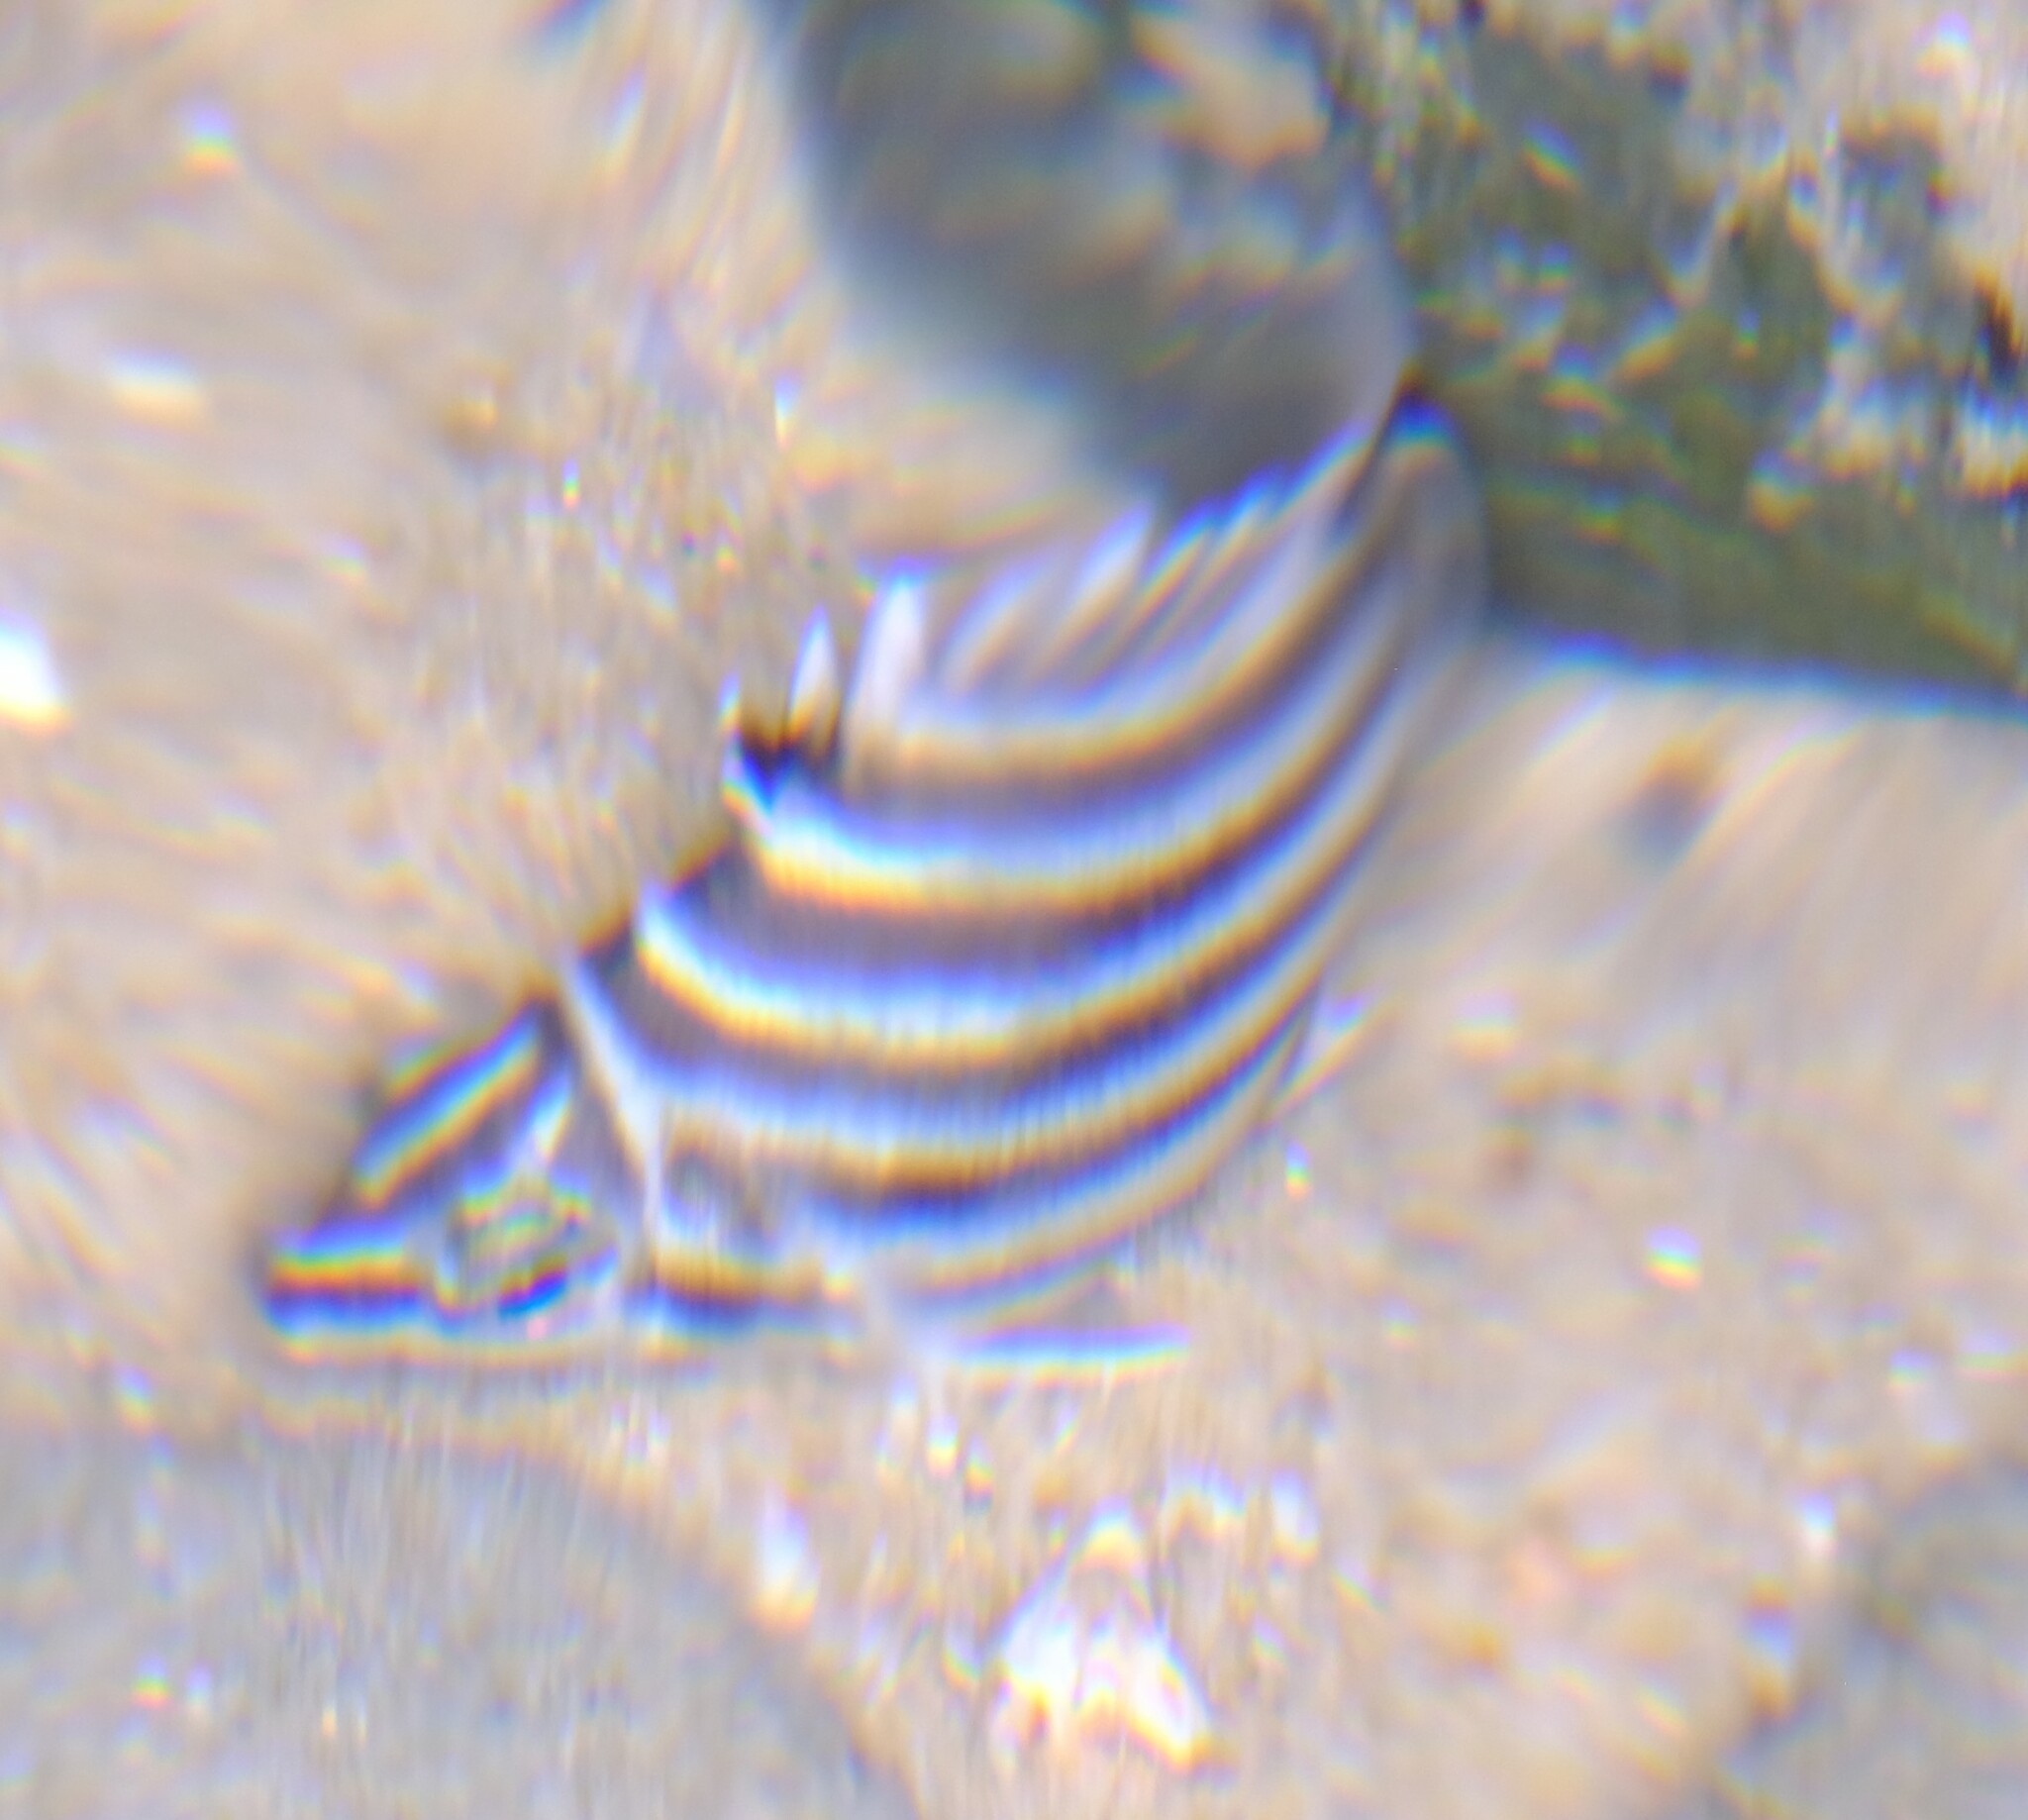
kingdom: Animalia
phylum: Chordata
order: Perciformes
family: Kyphosidae
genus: Microcanthus
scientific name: Microcanthus joyceae
